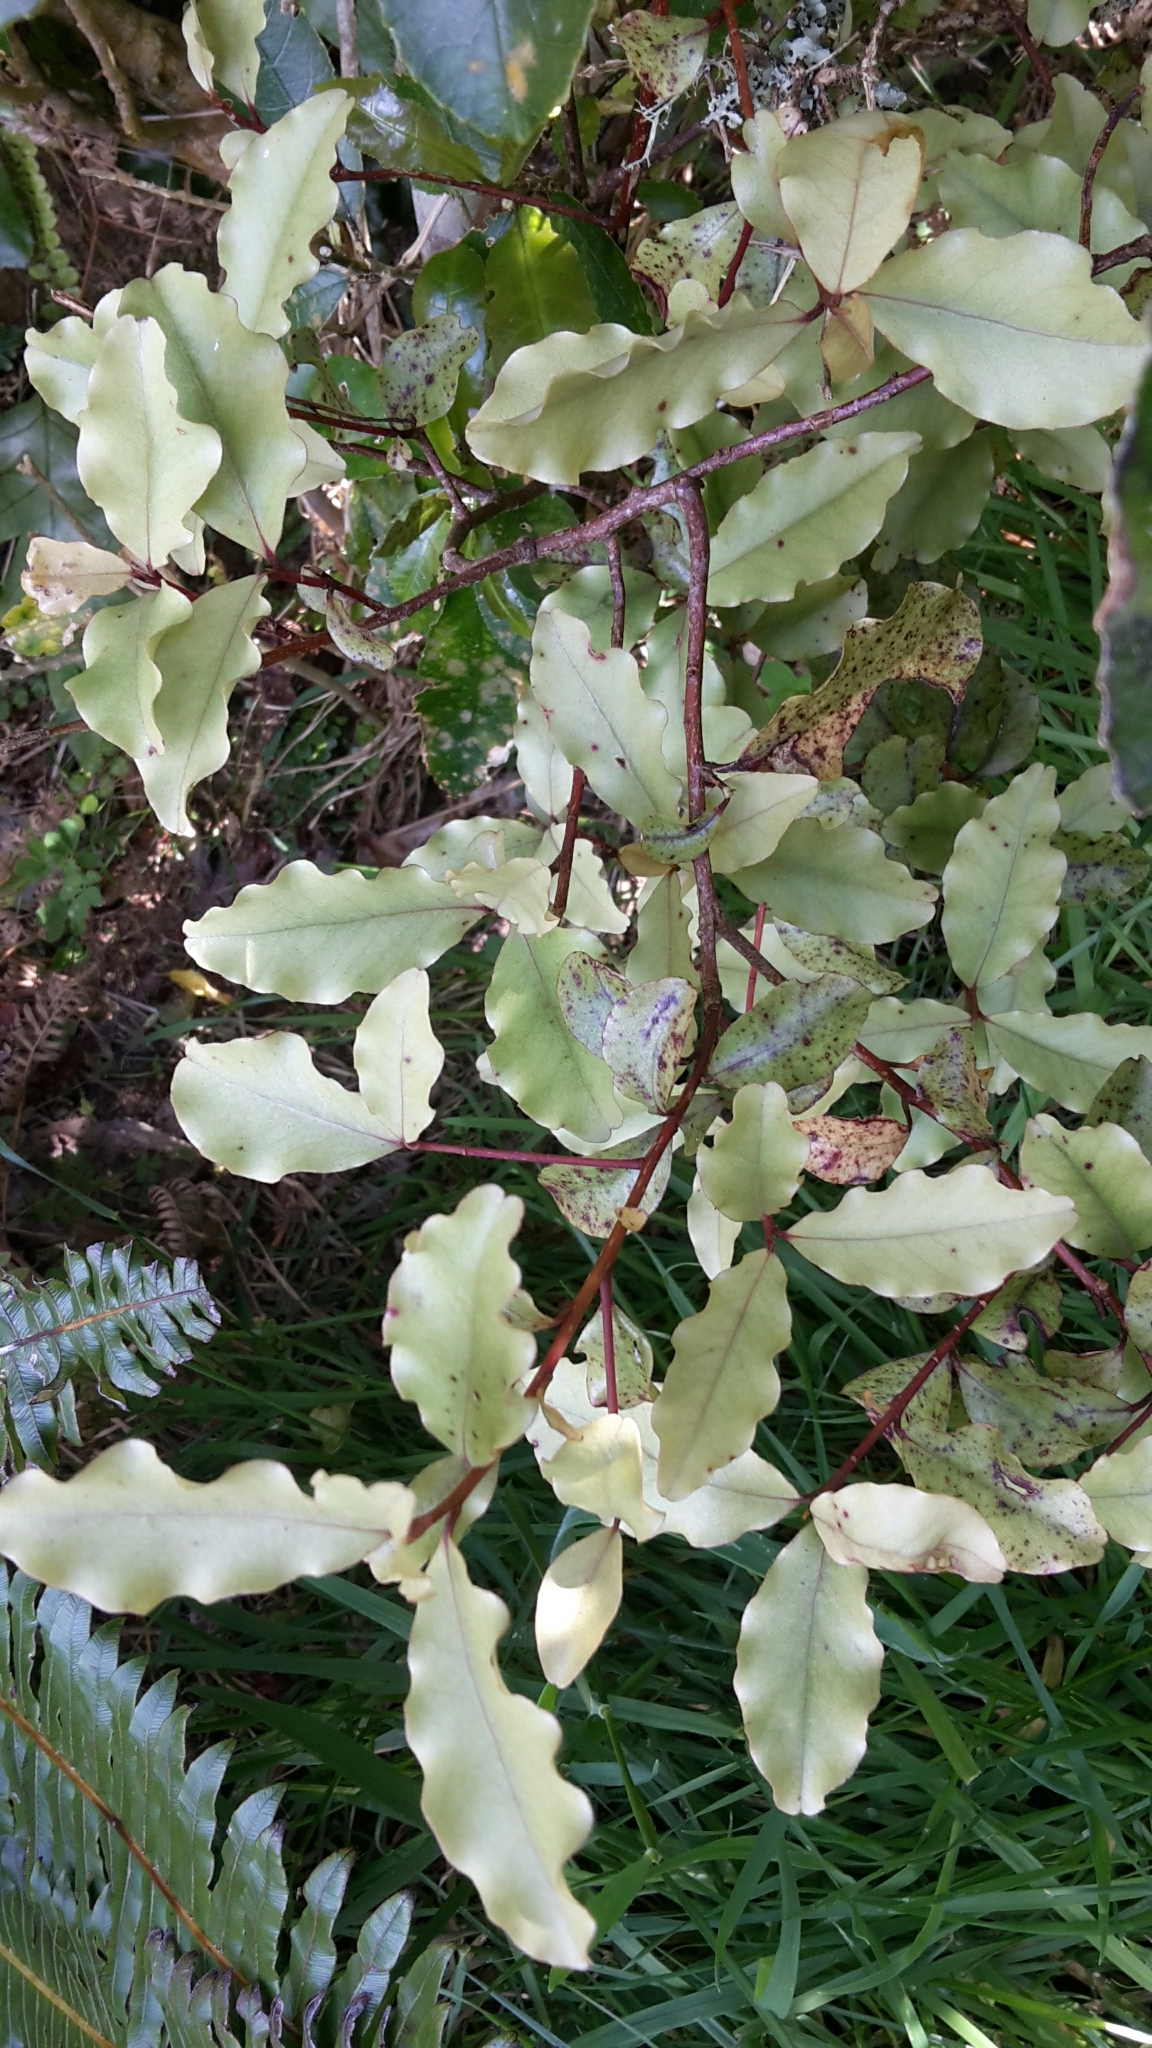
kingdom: Plantae
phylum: Tracheophyta
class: Magnoliopsida
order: Ericales
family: Primulaceae
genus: Myrsine
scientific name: Myrsine australis
